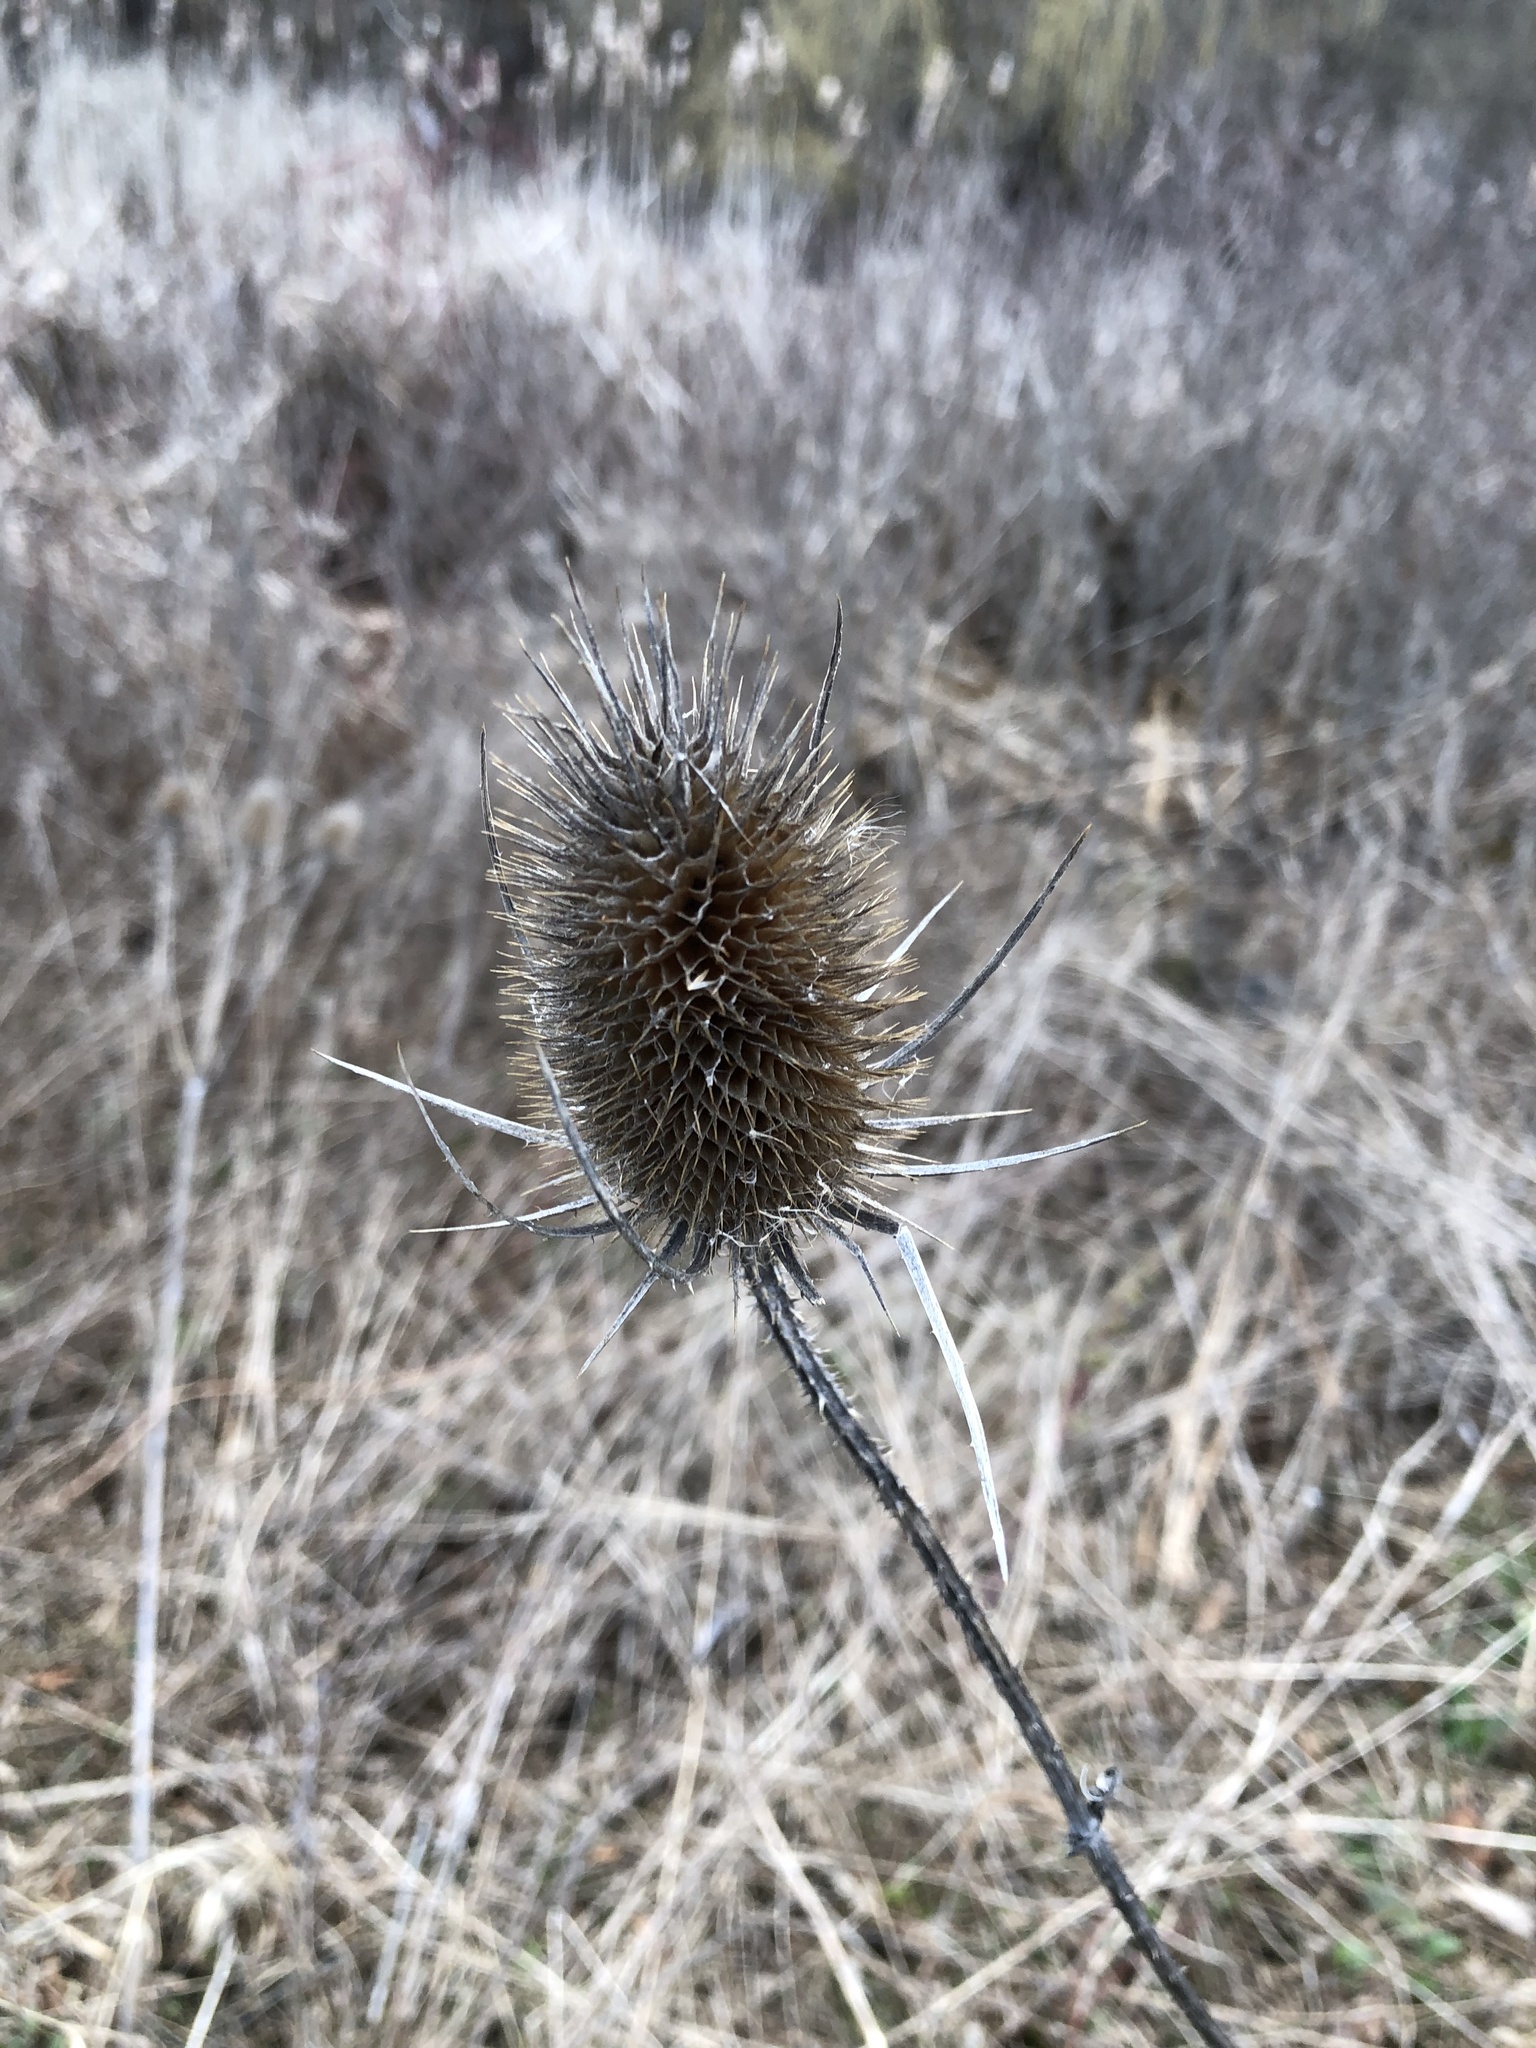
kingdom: Plantae
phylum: Tracheophyta
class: Magnoliopsida
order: Dipsacales
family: Caprifoliaceae
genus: Dipsacus
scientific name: Dipsacus fullonum
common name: Teasel
